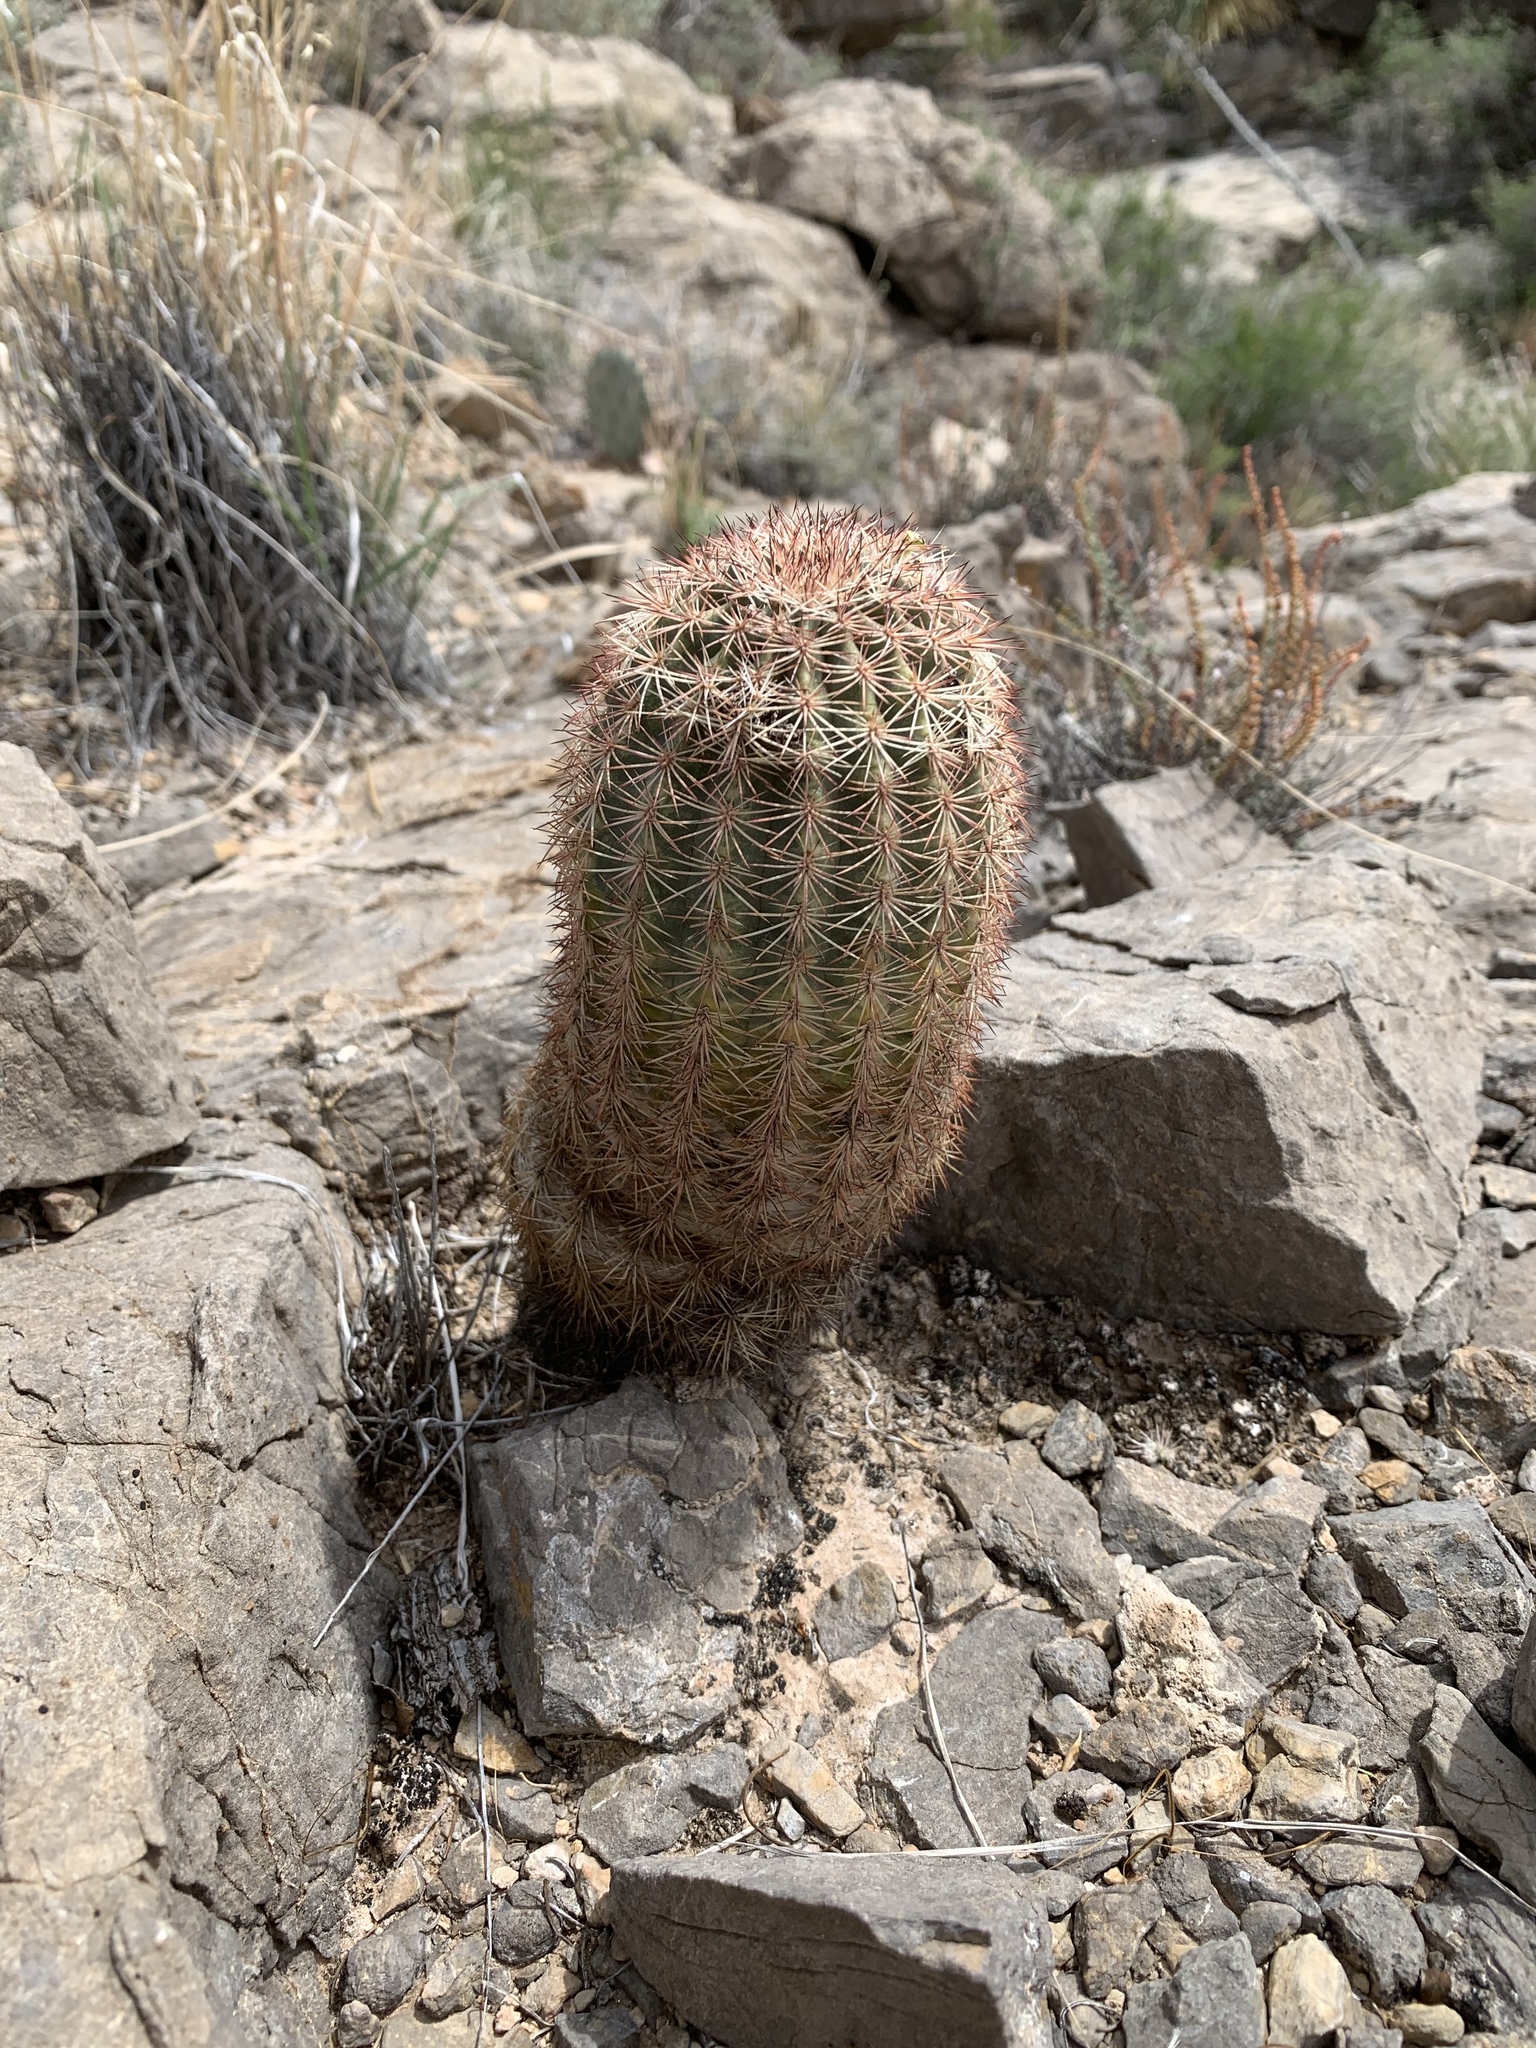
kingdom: Plantae
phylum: Tracheophyta
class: Magnoliopsida
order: Caryophyllales
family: Cactaceae
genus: Echinocereus
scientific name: Echinocereus dasyacanthus
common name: Spiny hedgehog cactus
